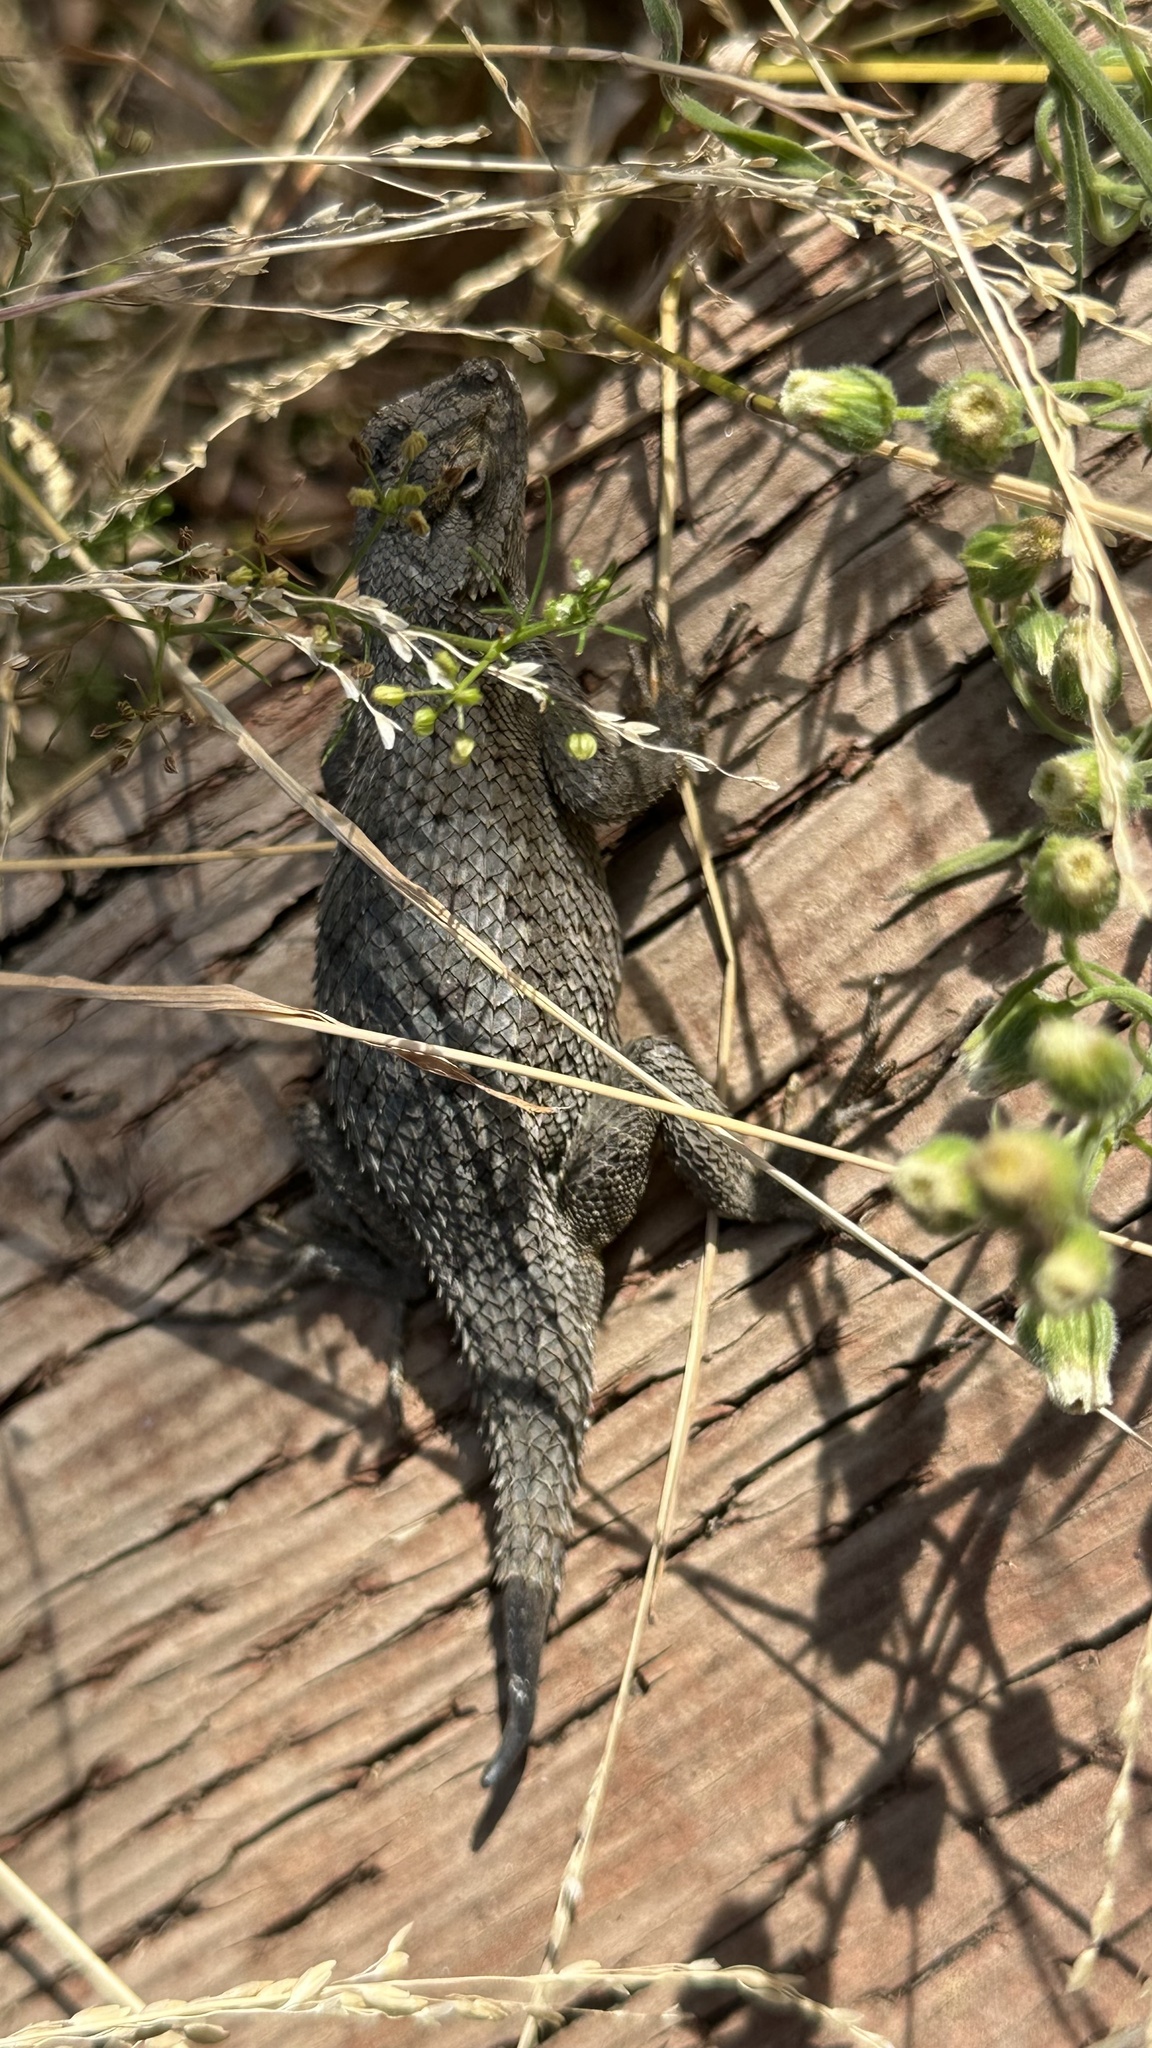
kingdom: Animalia
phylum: Chordata
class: Squamata
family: Phrynosomatidae
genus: Sceloporus
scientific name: Sceloporus occidentalis
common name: Western fence lizard
